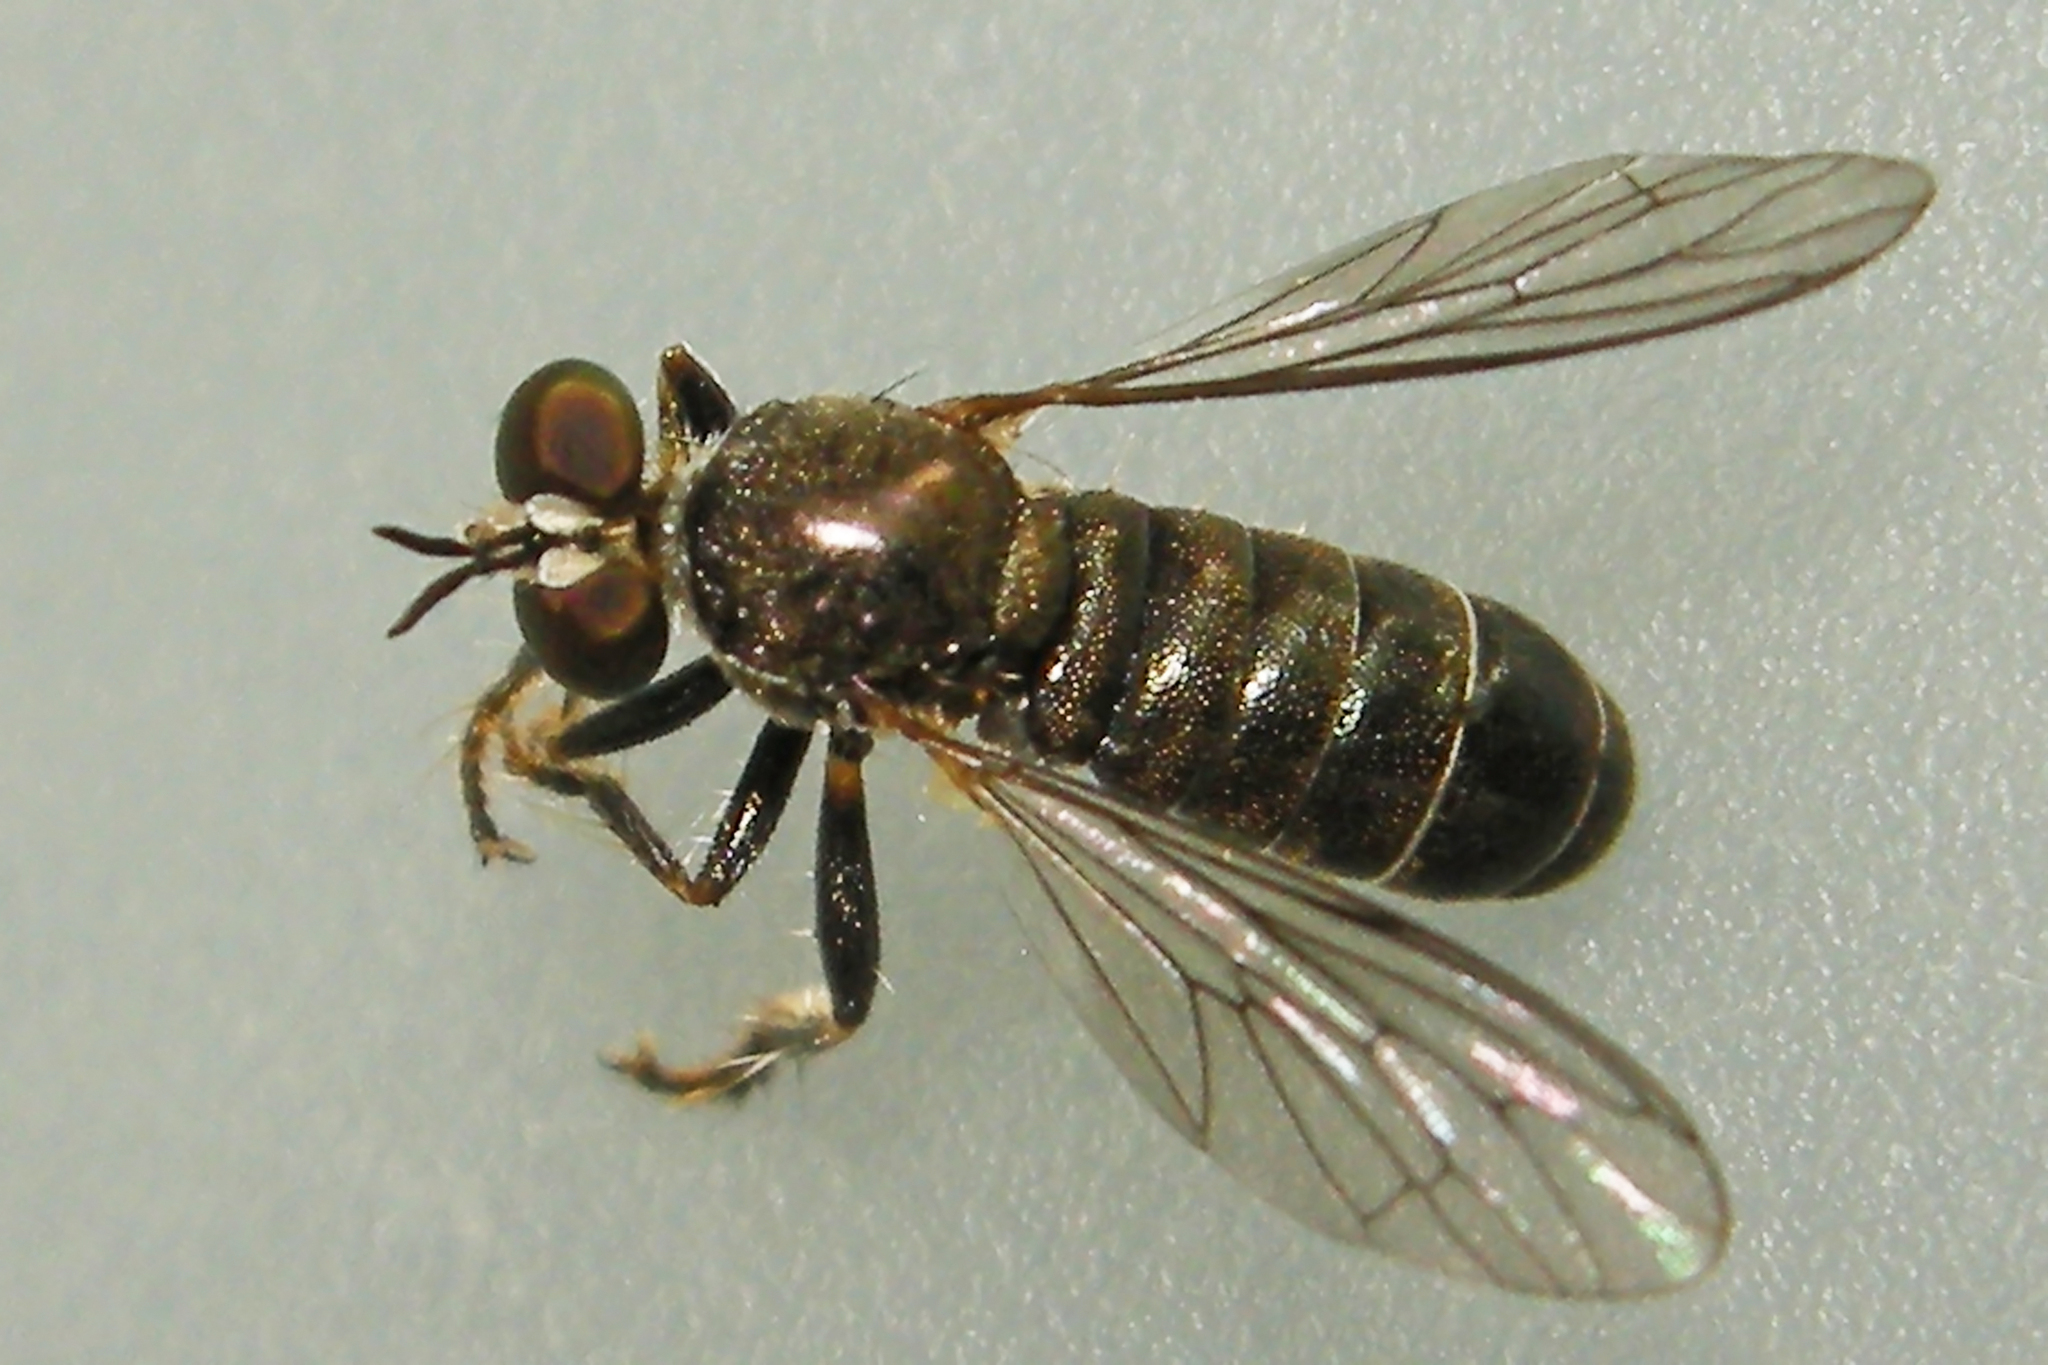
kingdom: Animalia
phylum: Arthropoda
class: Insecta
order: Diptera
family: Asilidae
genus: Atomosia
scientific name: Atomosia puella
